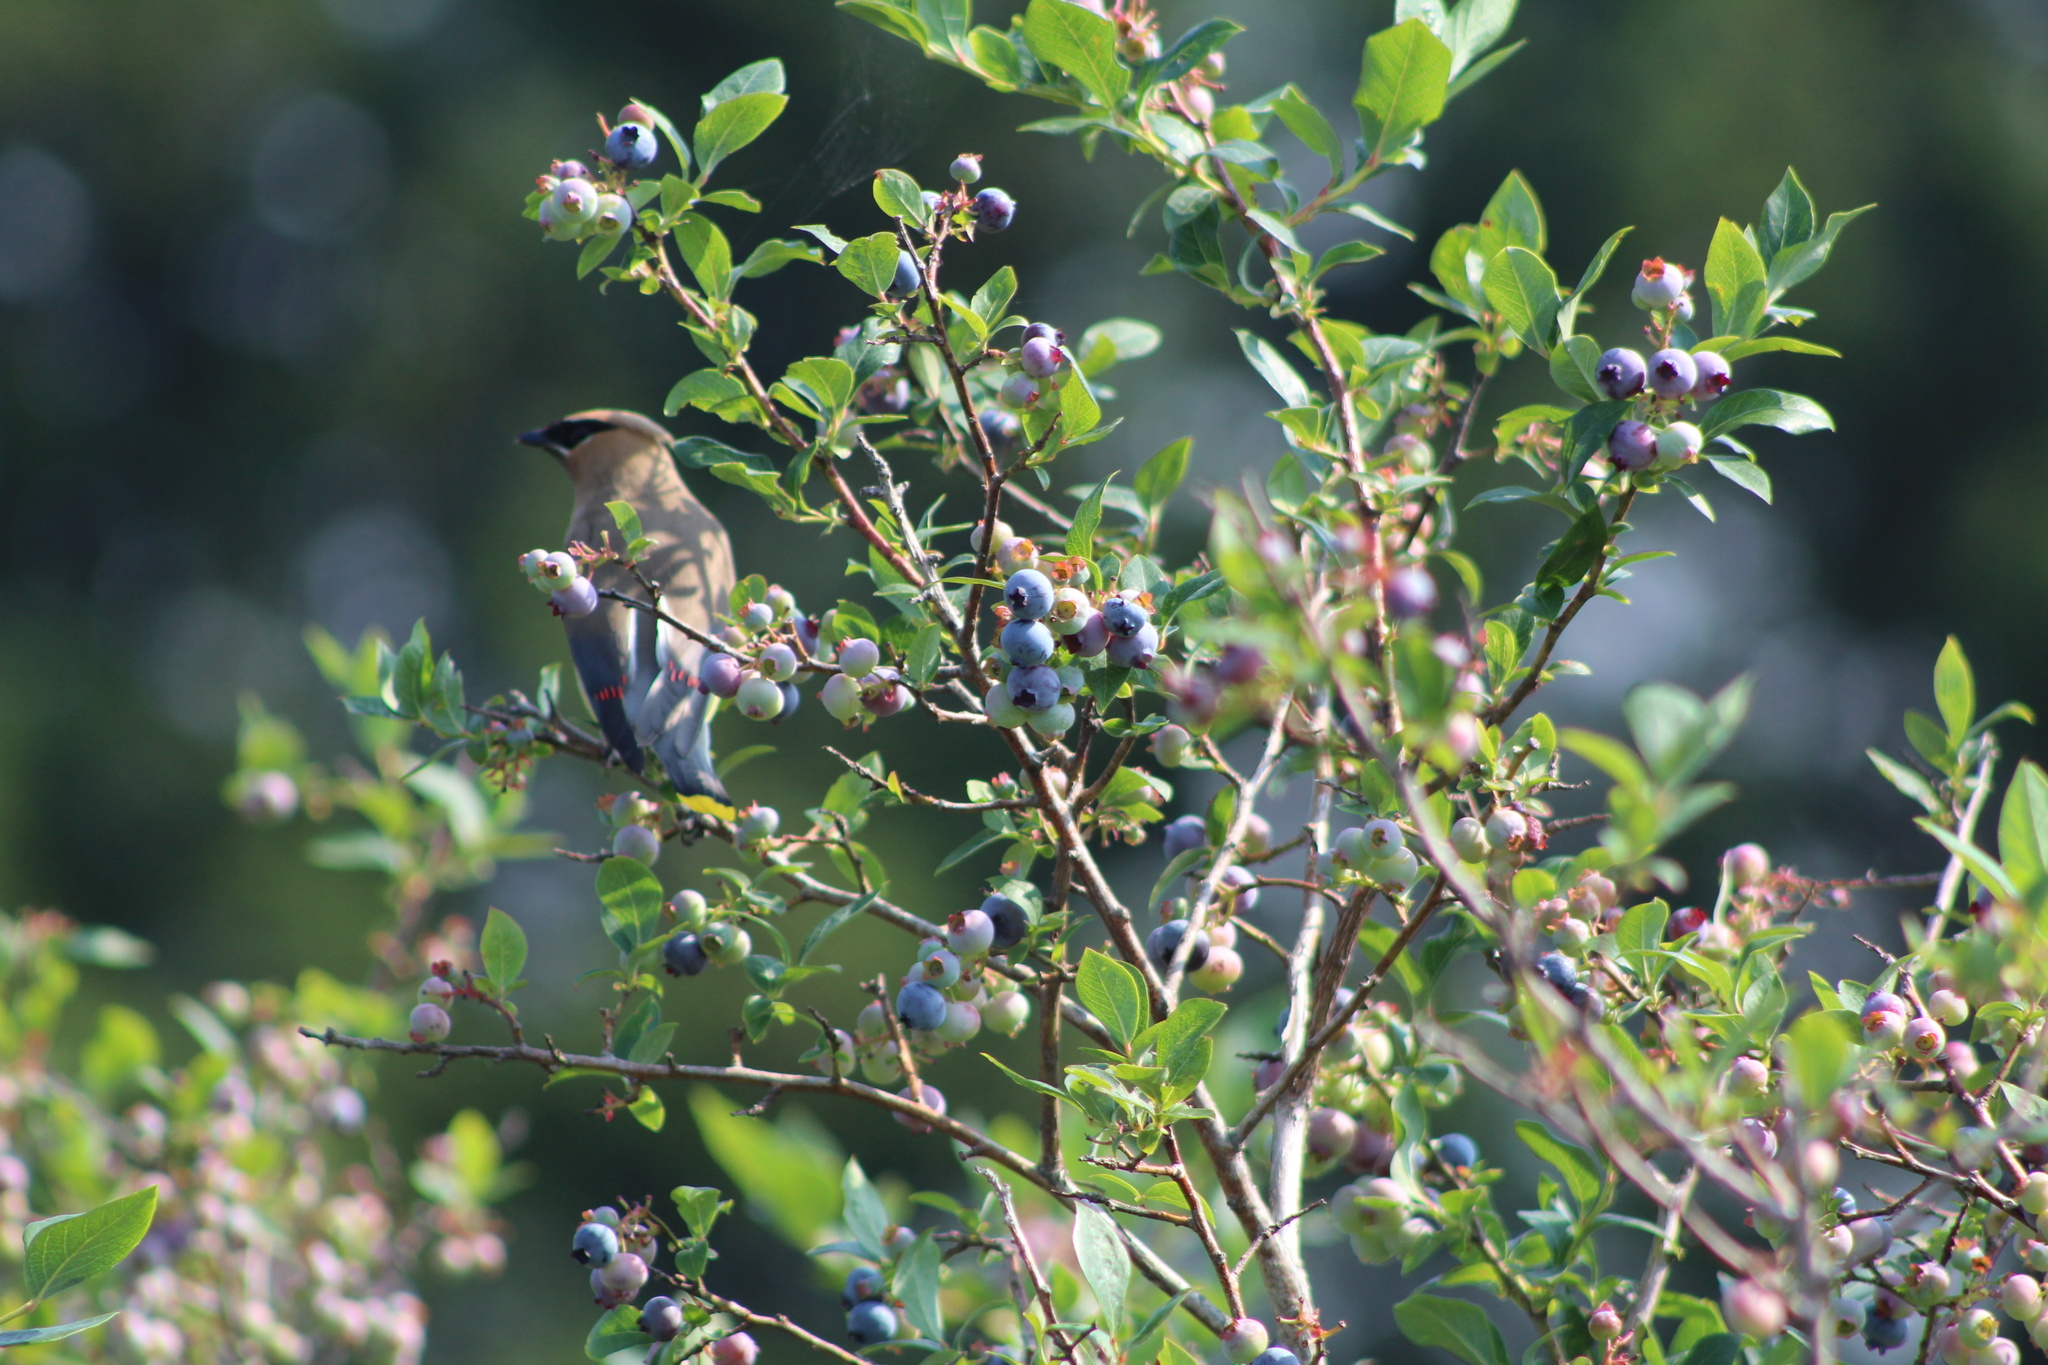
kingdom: Animalia
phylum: Chordata
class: Aves
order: Passeriformes
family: Bombycillidae
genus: Bombycilla
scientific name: Bombycilla cedrorum
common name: Cedar waxwing
